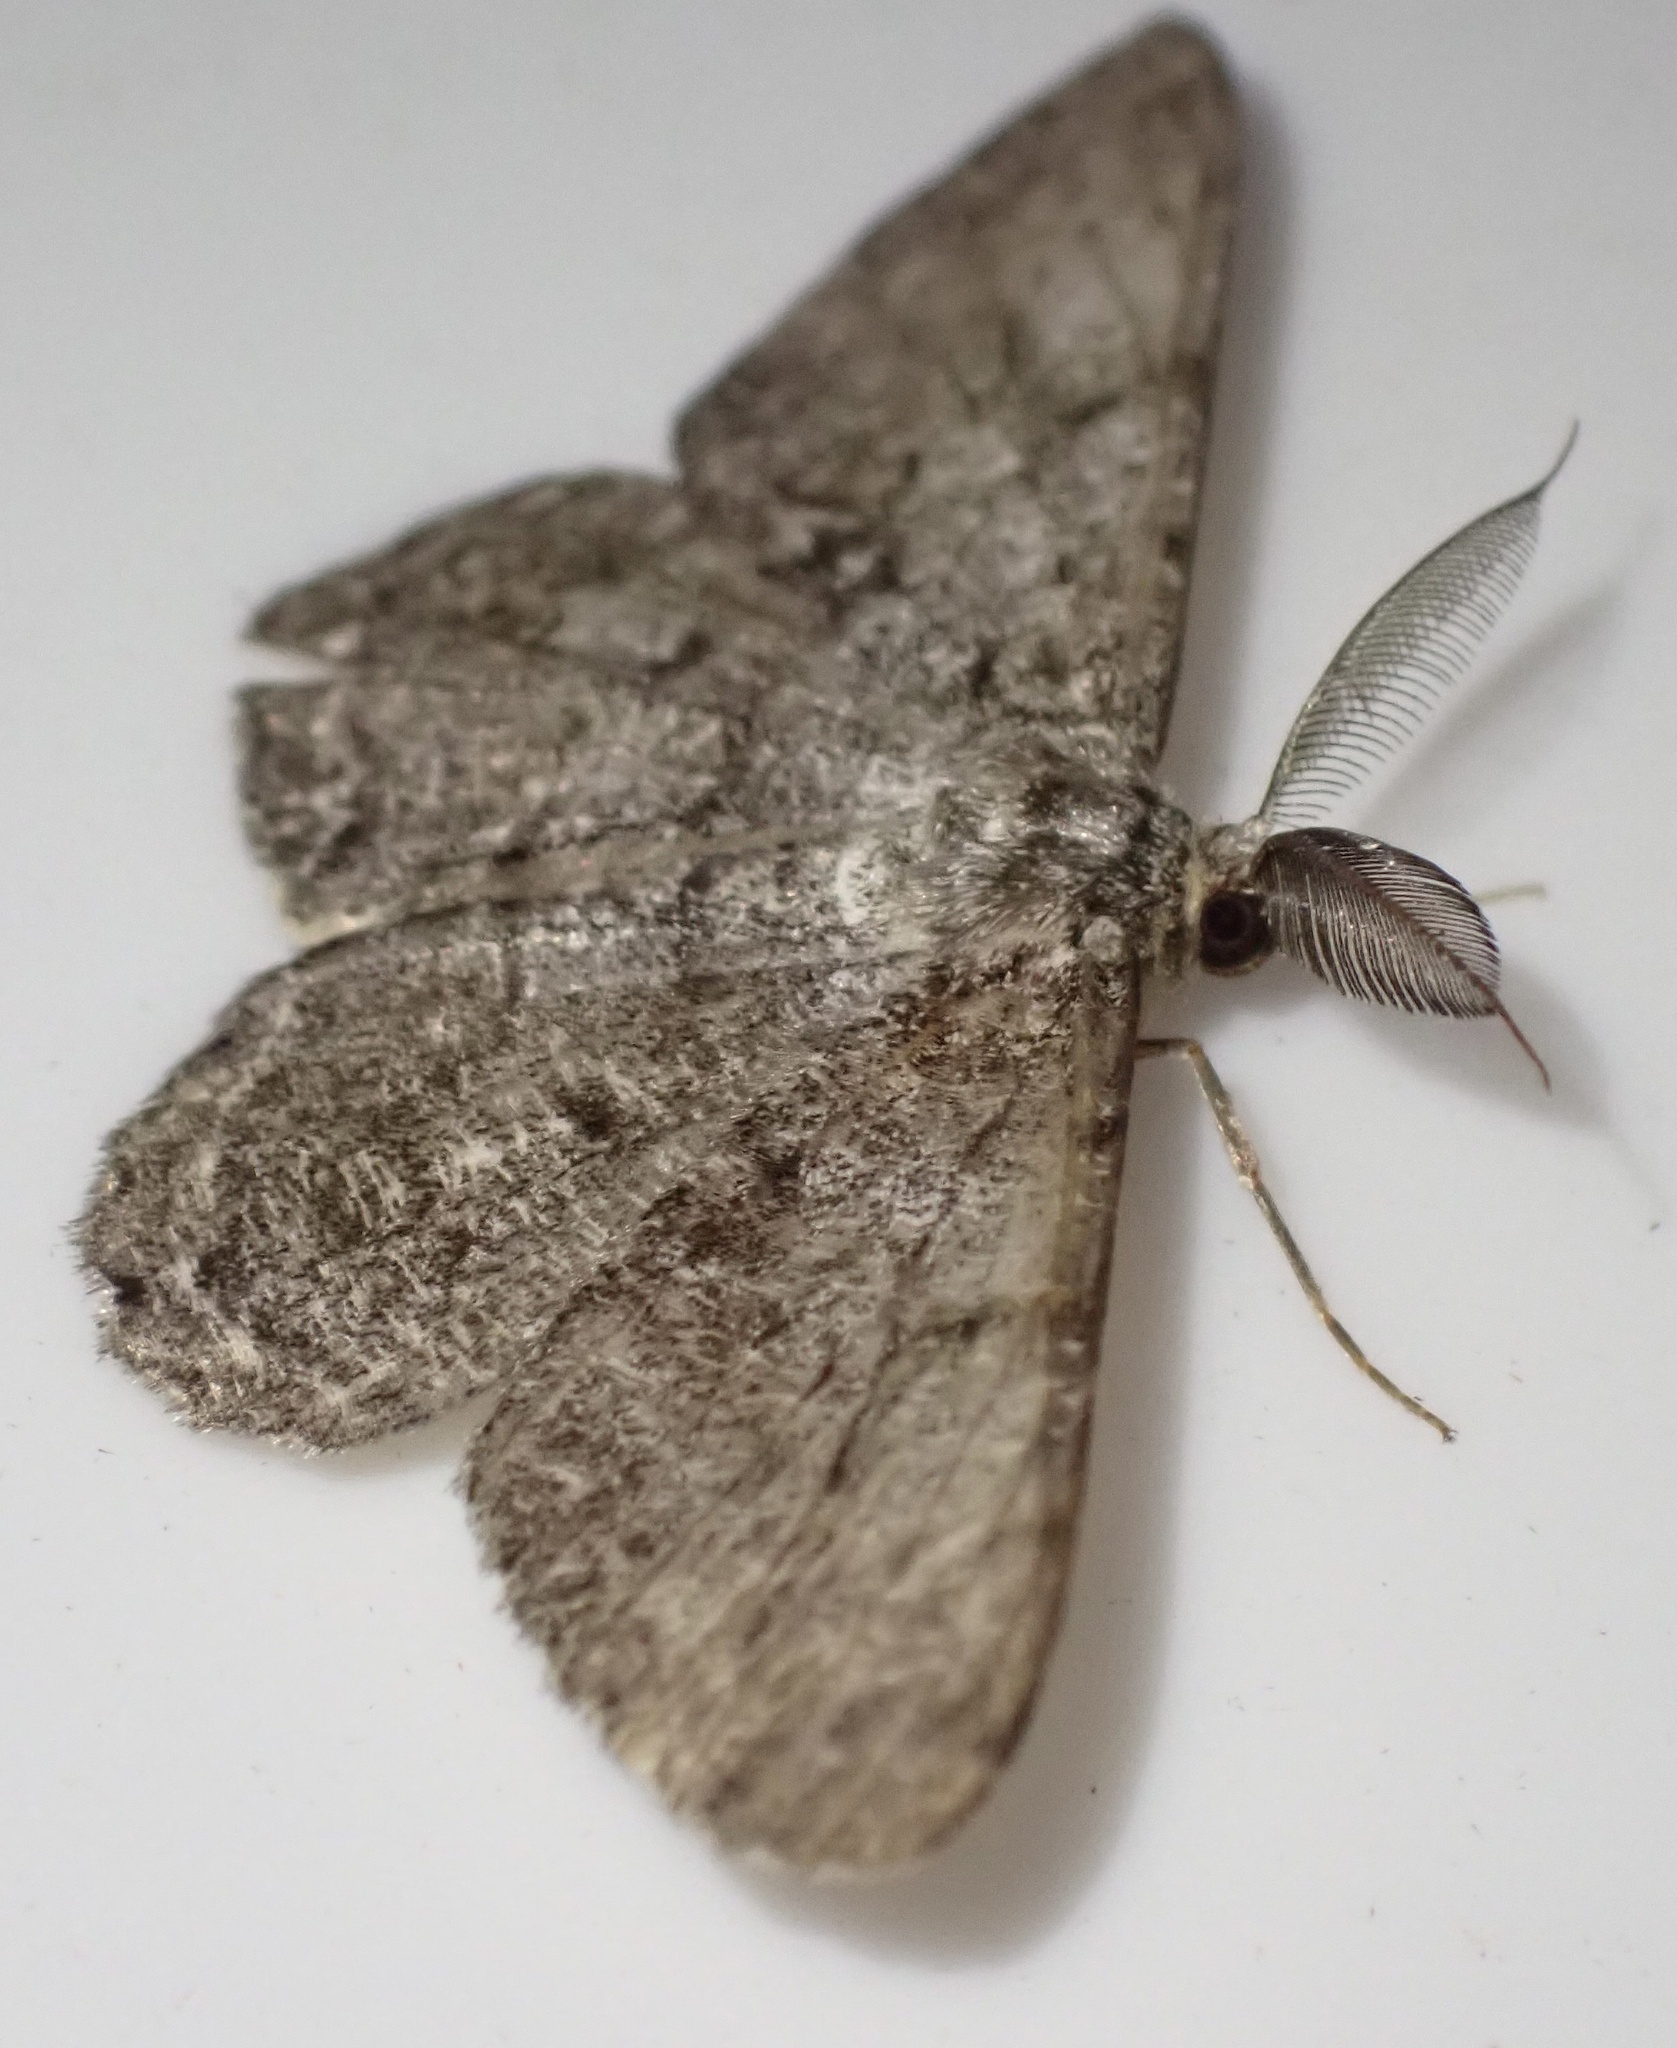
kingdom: Animalia
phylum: Arthropoda
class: Insecta
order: Lepidoptera
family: Geometridae
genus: Hypomecis
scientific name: Hypomecis roboraria
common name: Great oak beauty
